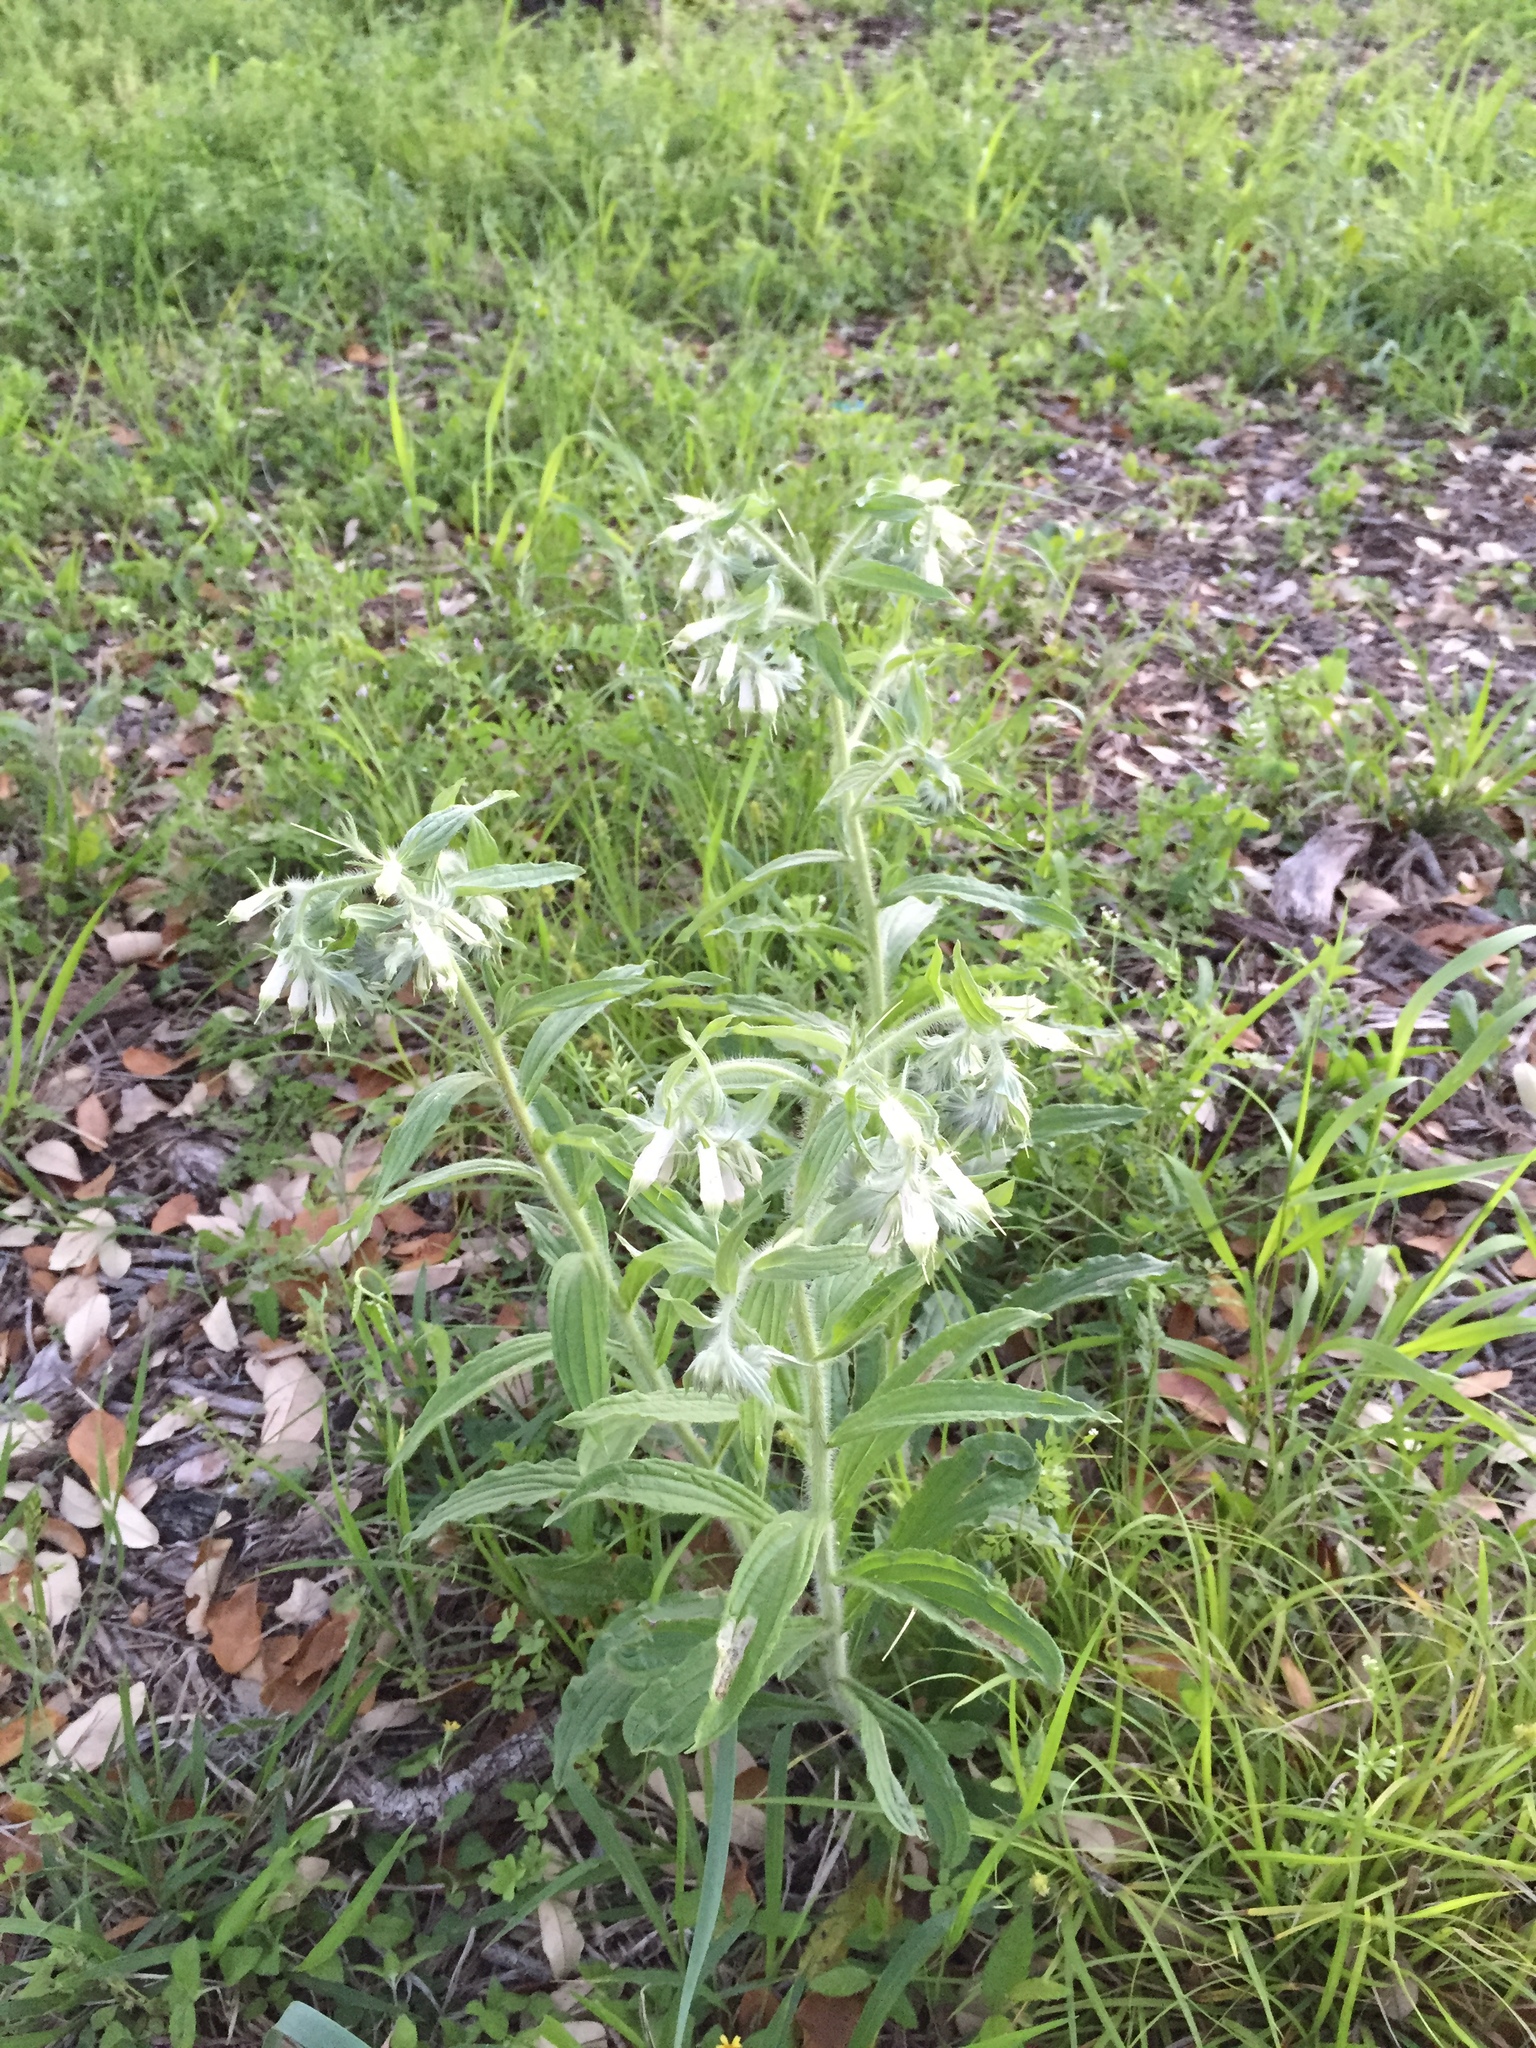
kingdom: Plantae
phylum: Tracheophyta
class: Magnoliopsida
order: Boraginales
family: Boraginaceae
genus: Lithospermum
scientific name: Lithospermum caroliniense
